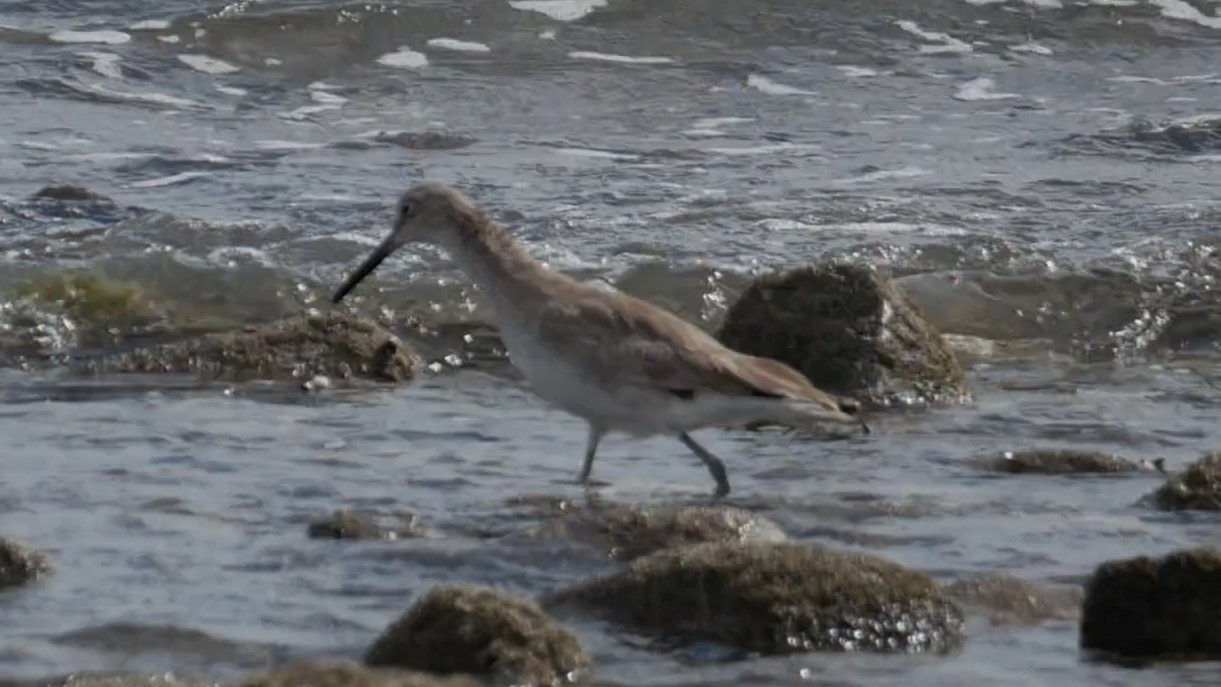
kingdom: Animalia
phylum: Chordata
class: Aves
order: Charadriiformes
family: Scolopacidae
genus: Tringa
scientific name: Tringa semipalmata
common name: Willet
